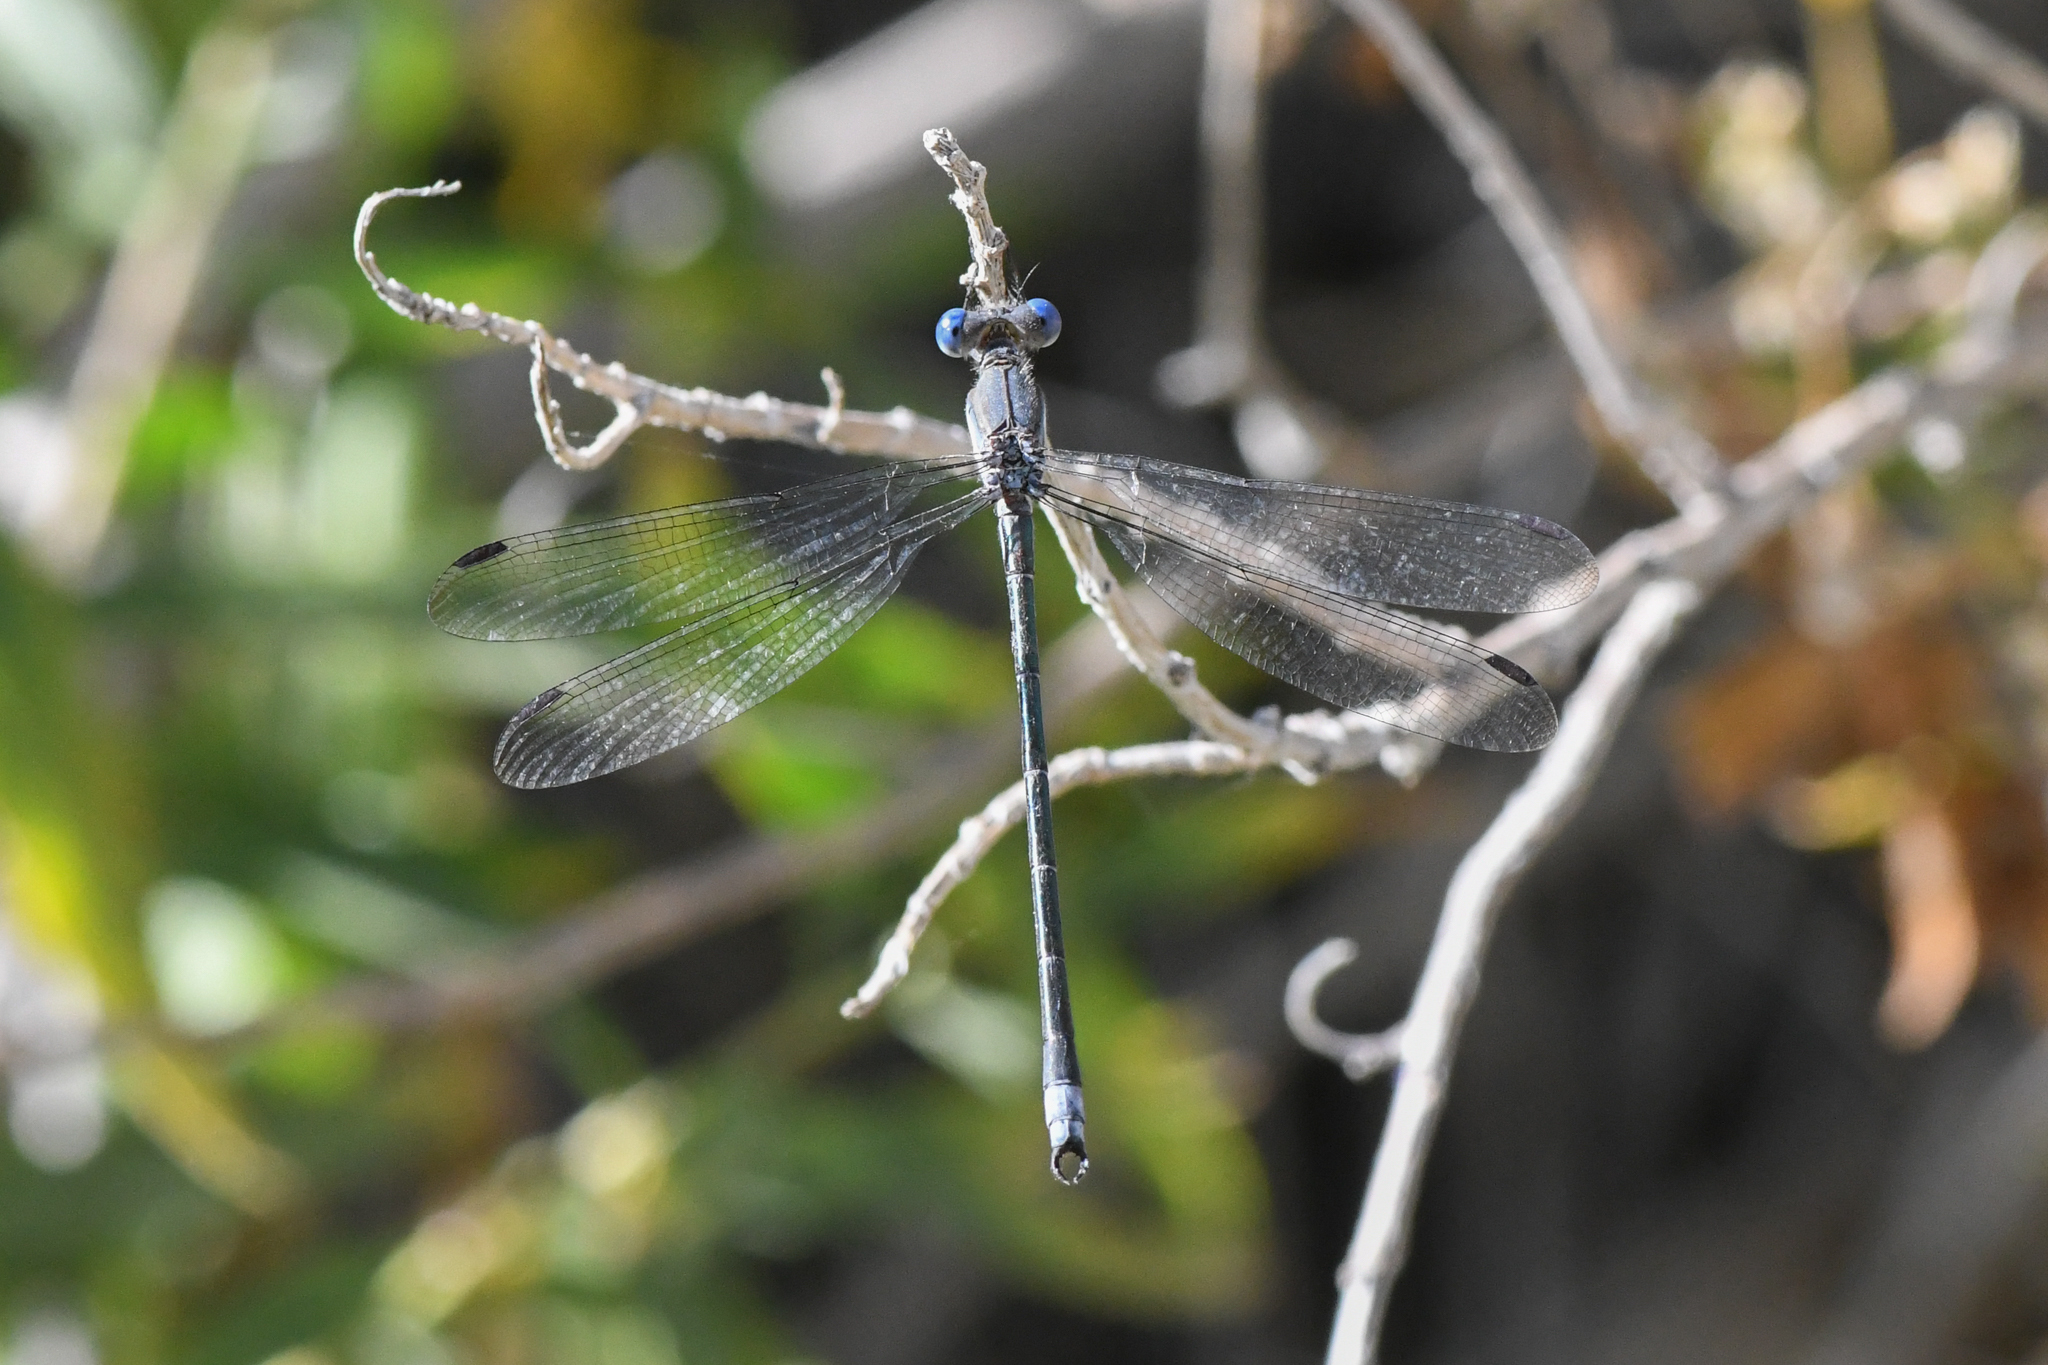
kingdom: Animalia
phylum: Arthropoda
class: Insecta
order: Odonata
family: Lestidae
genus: Archilestes
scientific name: Archilestes grandis
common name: Great spreadwing
